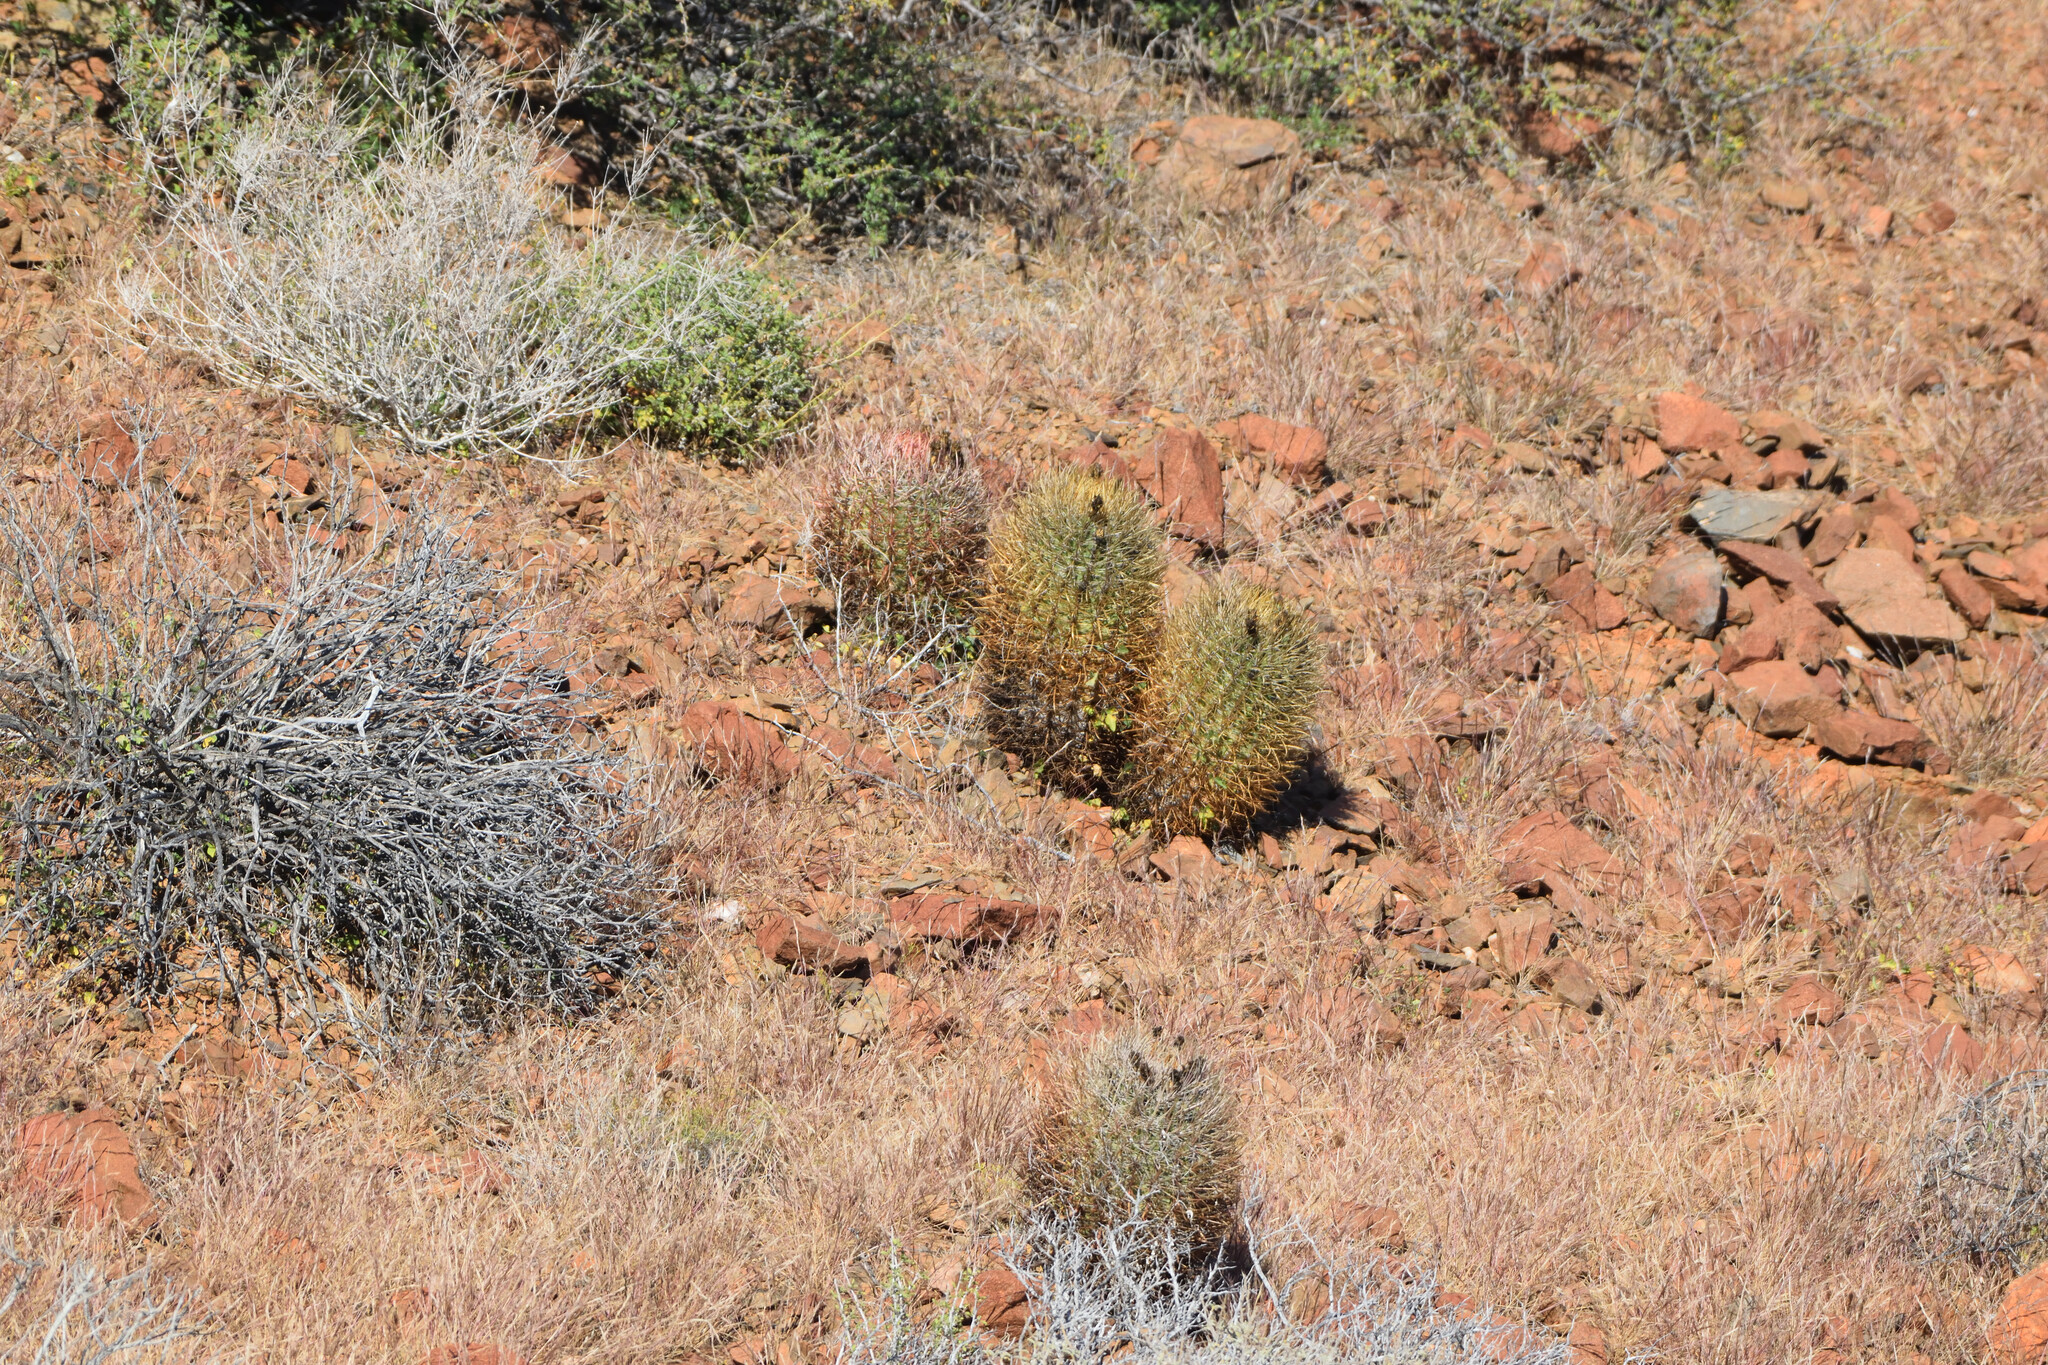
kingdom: Plantae
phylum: Tracheophyta
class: Magnoliopsida
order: Caryophyllales
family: Cactaceae
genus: Ferocactus
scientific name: Ferocactus chrysacanthus
